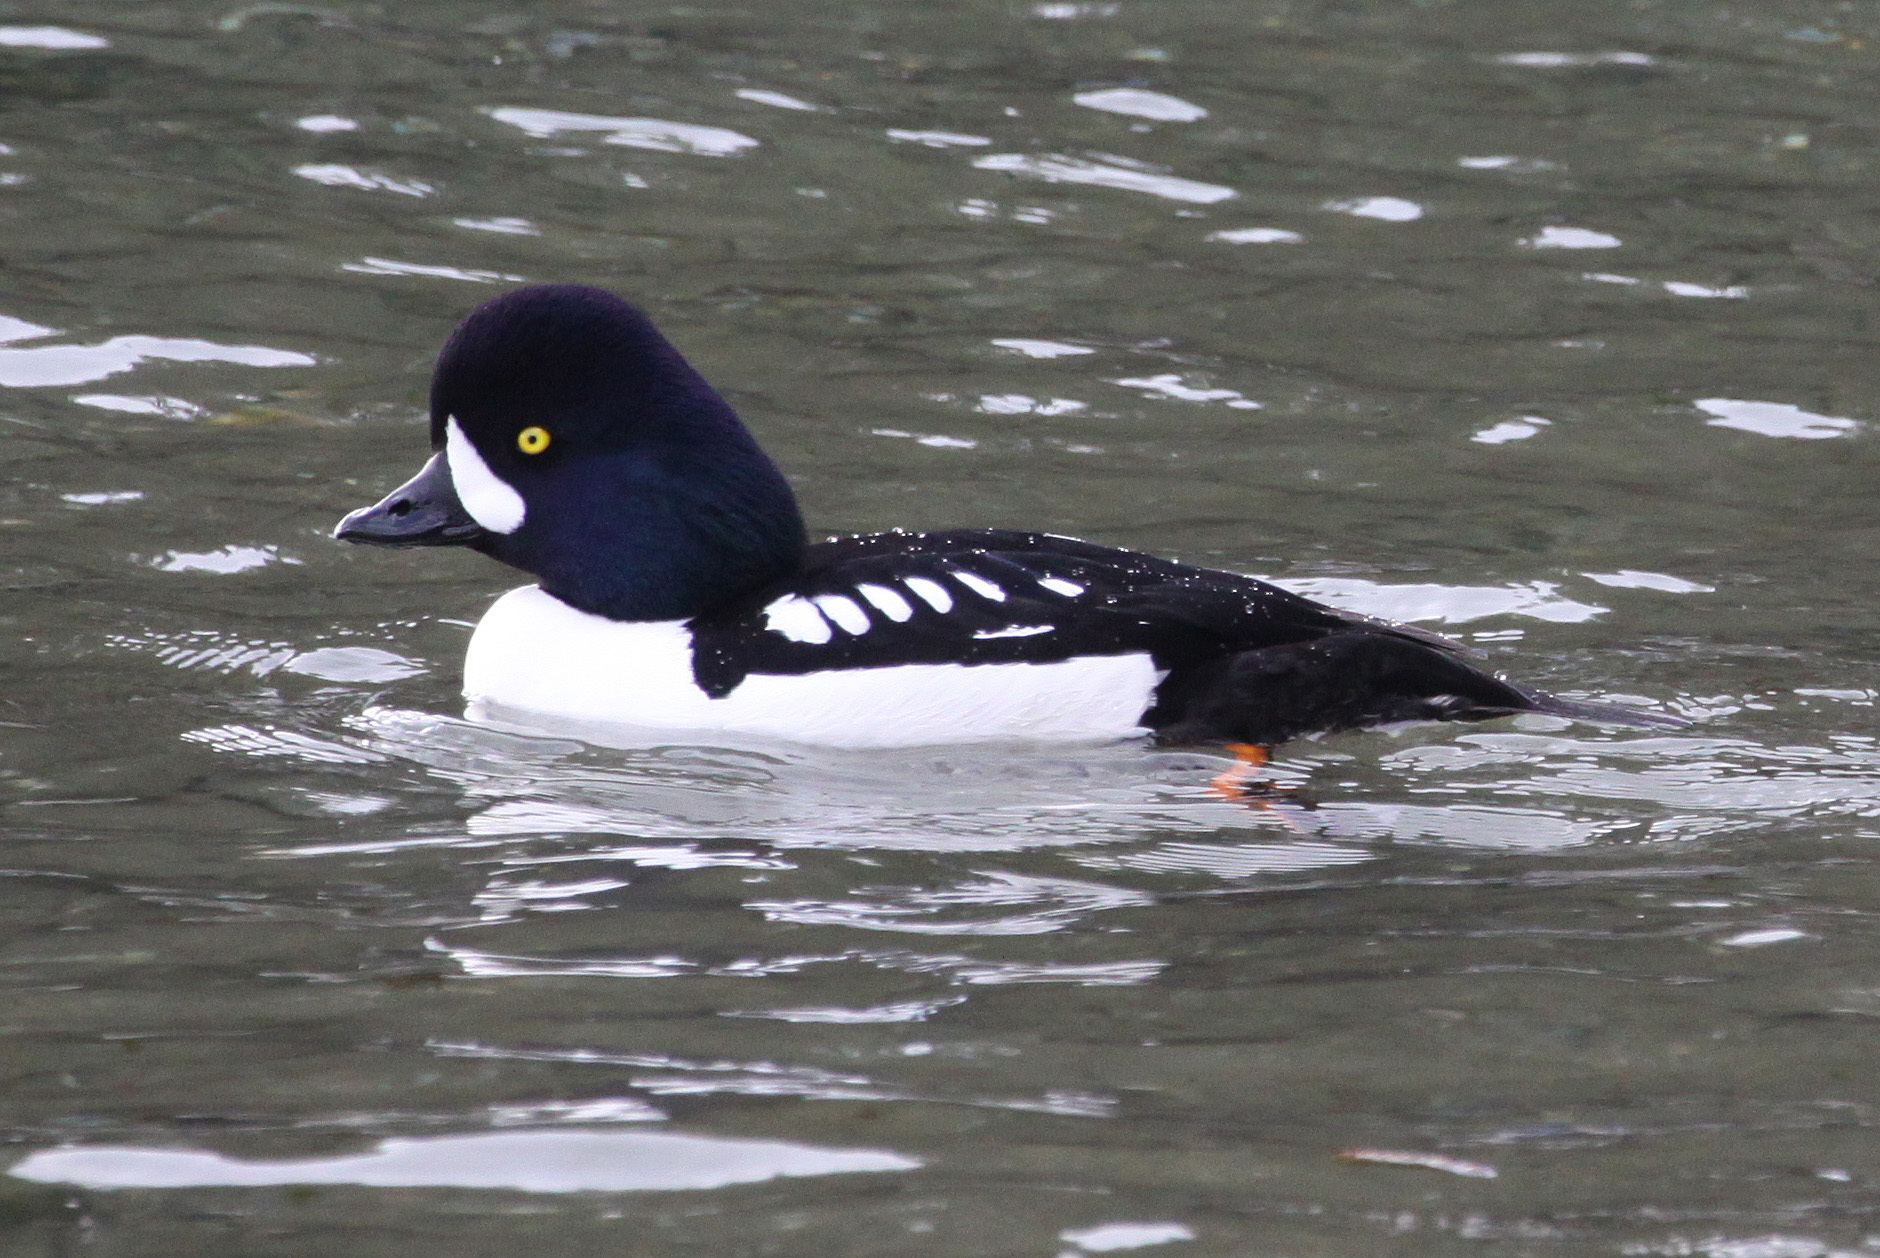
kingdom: Animalia
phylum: Chordata
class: Aves
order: Anseriformes
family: Anatidae
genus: Bucephala
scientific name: Bucephala islandica
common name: Barrow's goldeneye
